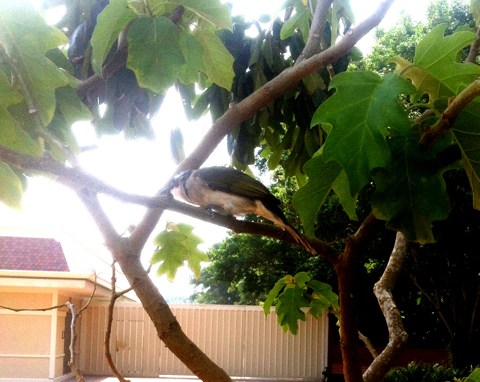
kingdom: Animalia
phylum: Chordata
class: Aves
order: Passeriformes
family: Pycnonotidae
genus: Pycnonotus
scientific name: Pycnonotus sinensis
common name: Light-vented bulbul
